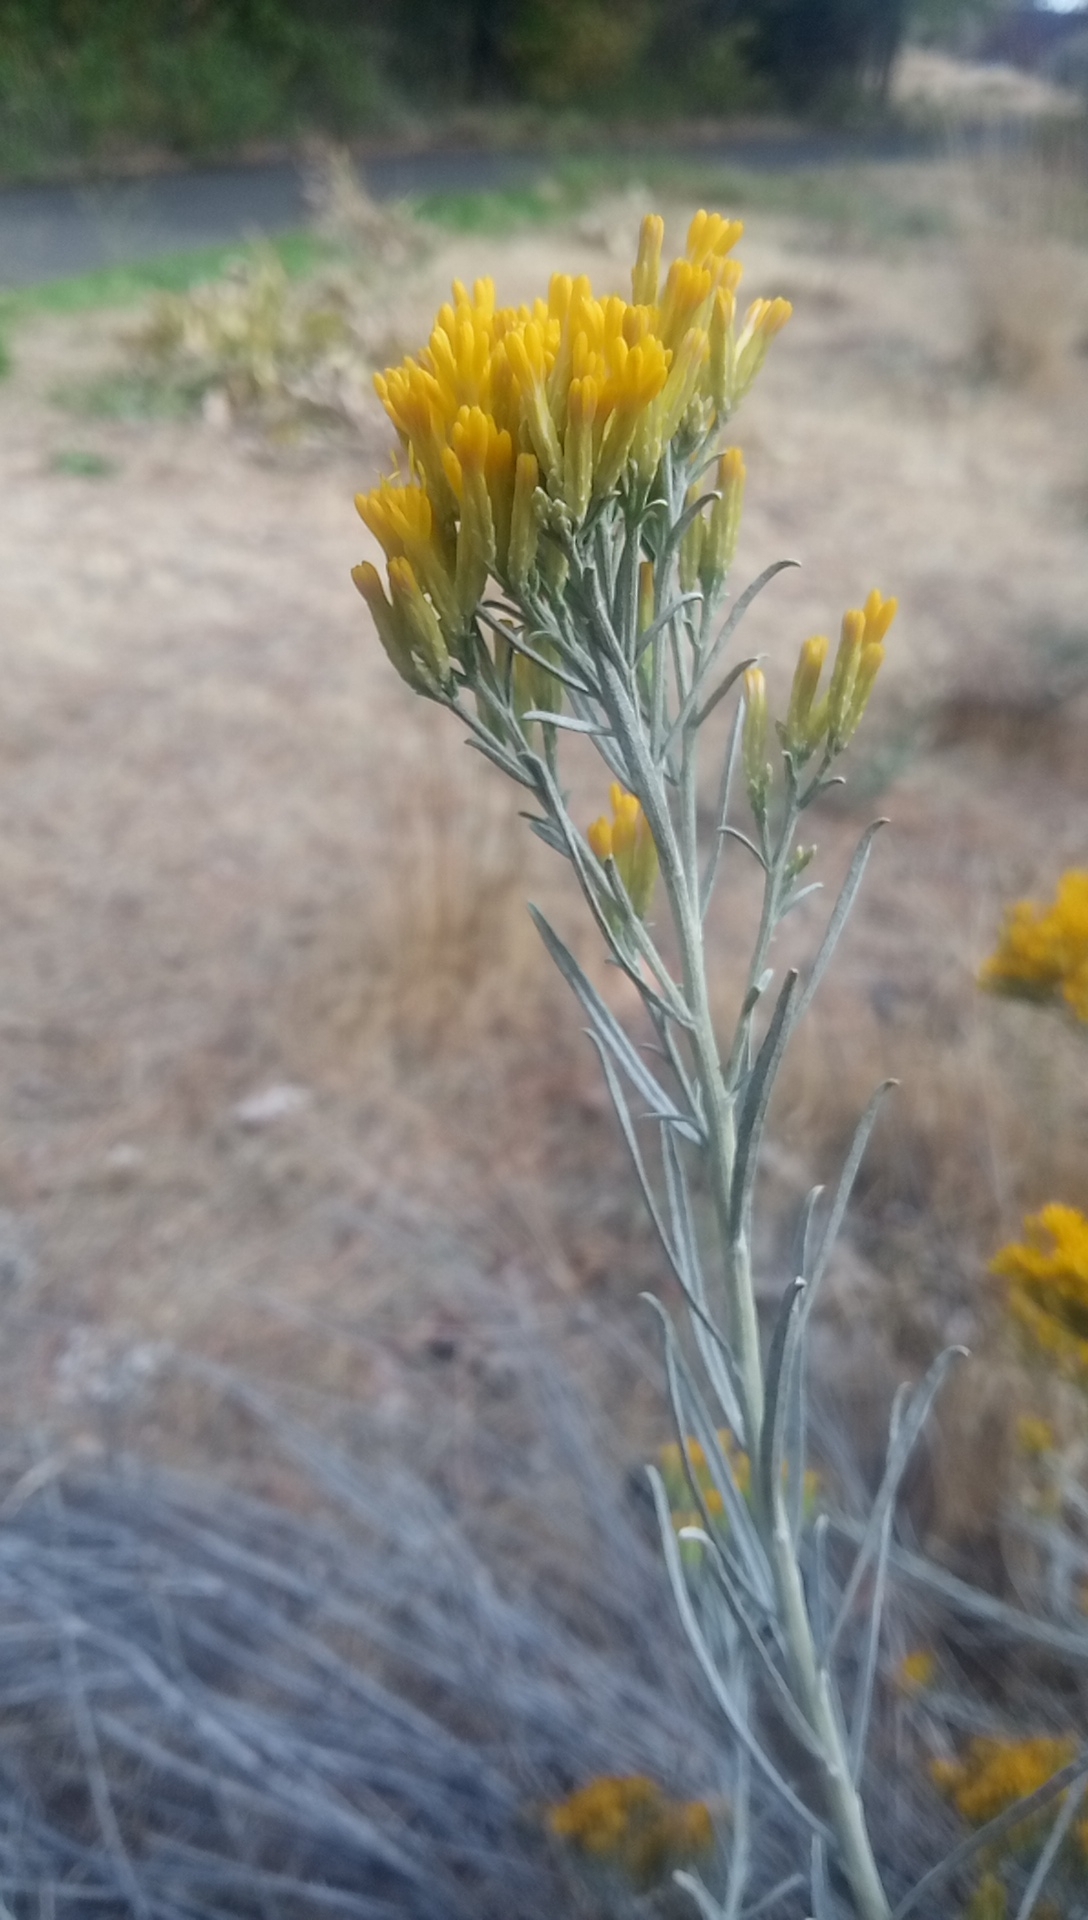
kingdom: Plantae
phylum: Tracheophyta
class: Magnoliopsida
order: Asterales
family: Asteraceae
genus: Ericameria
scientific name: Ericameria nauseosa
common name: Rubber rabbitbrush
